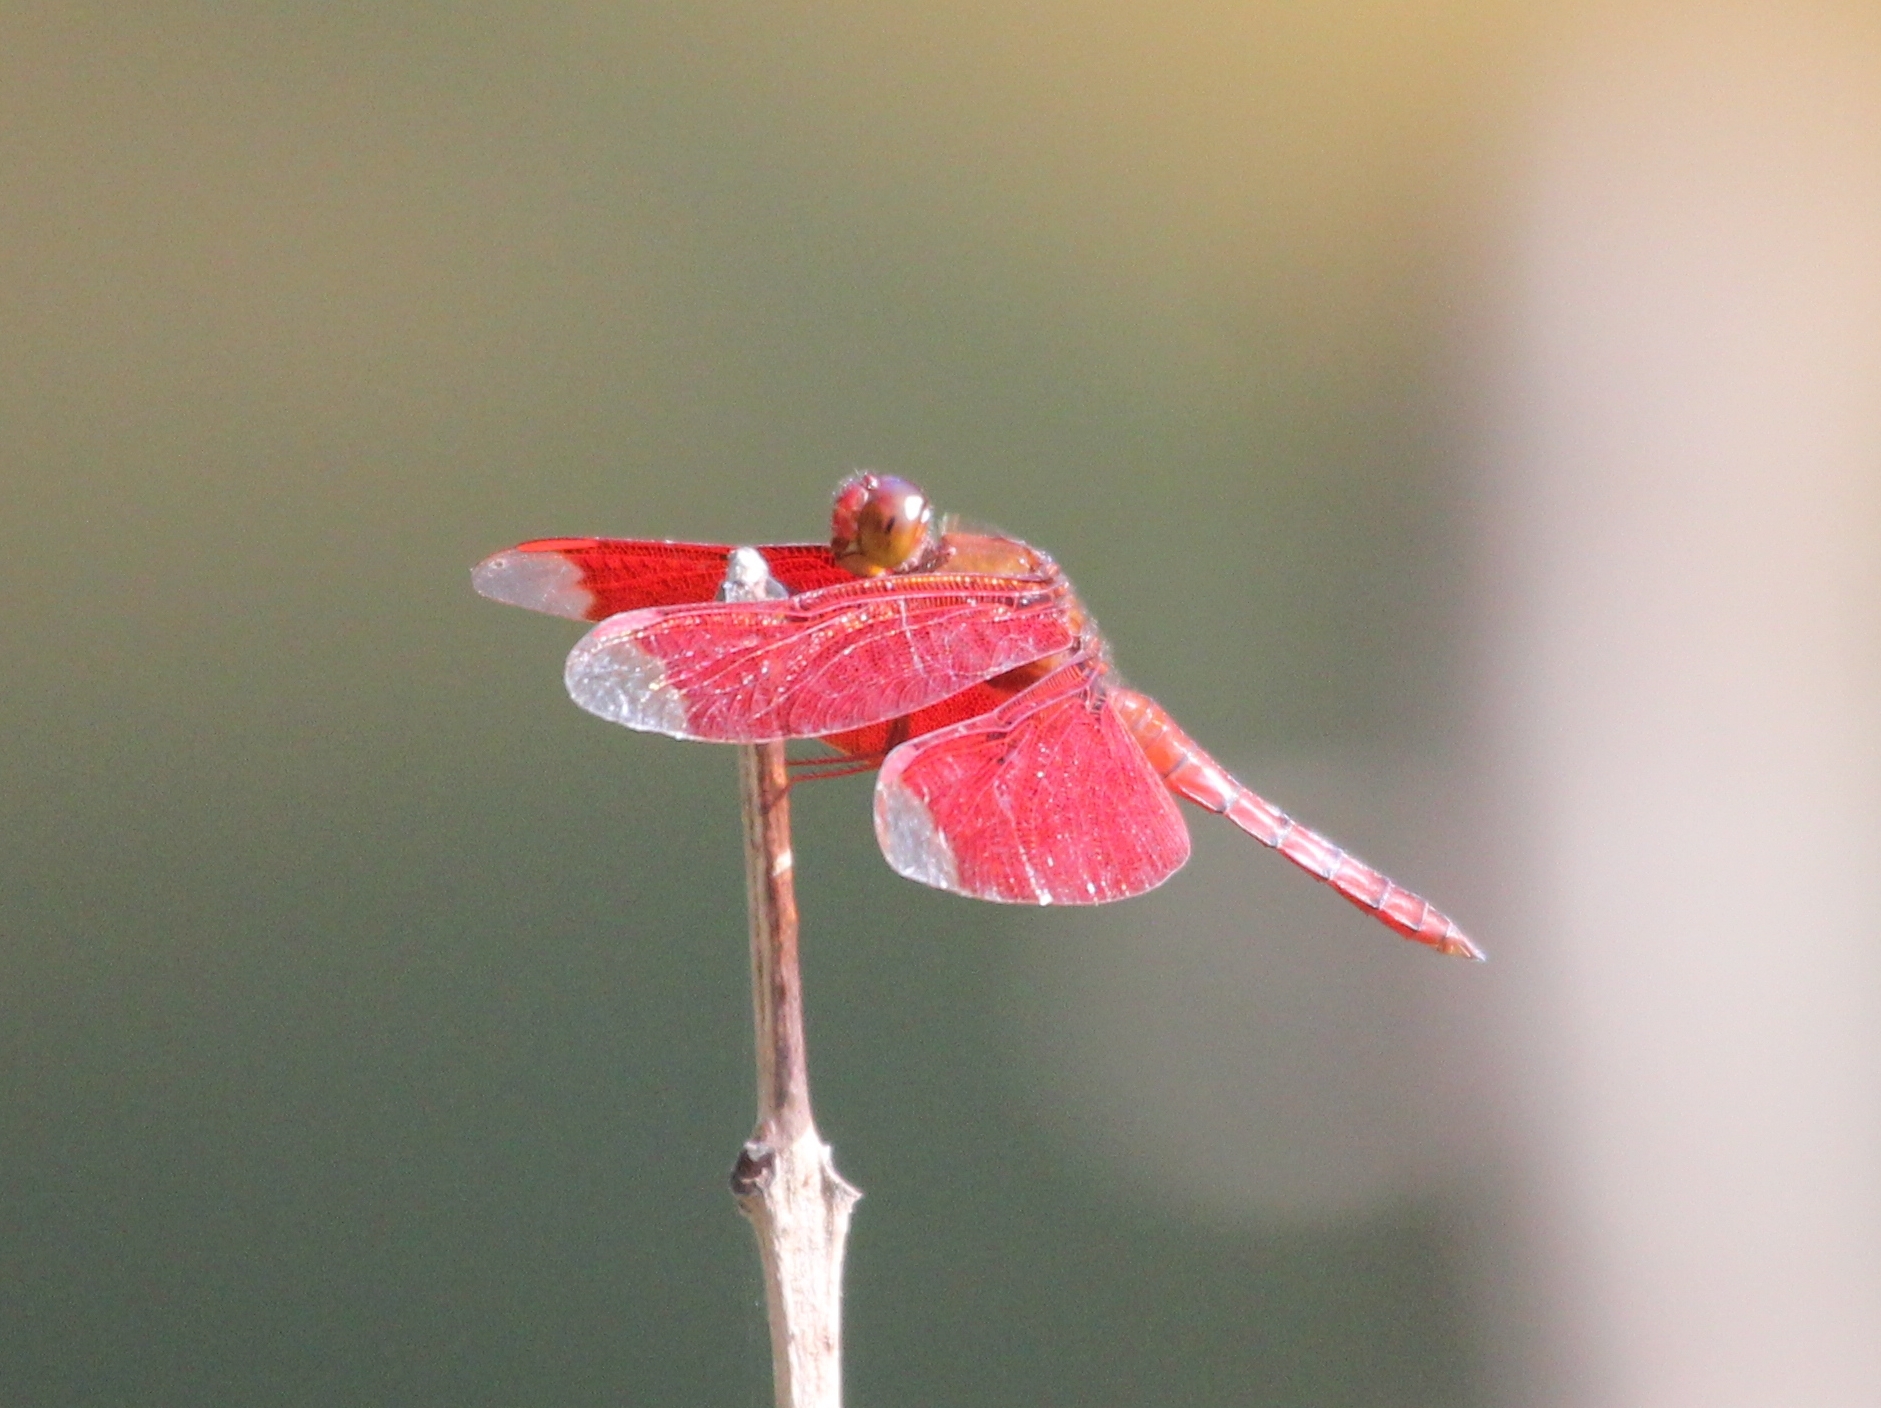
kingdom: Animalia
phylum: Arthropoda
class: Insecta
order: Odonata
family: Libellulidae
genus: Neurothemis
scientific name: Neurothemis fulvia
